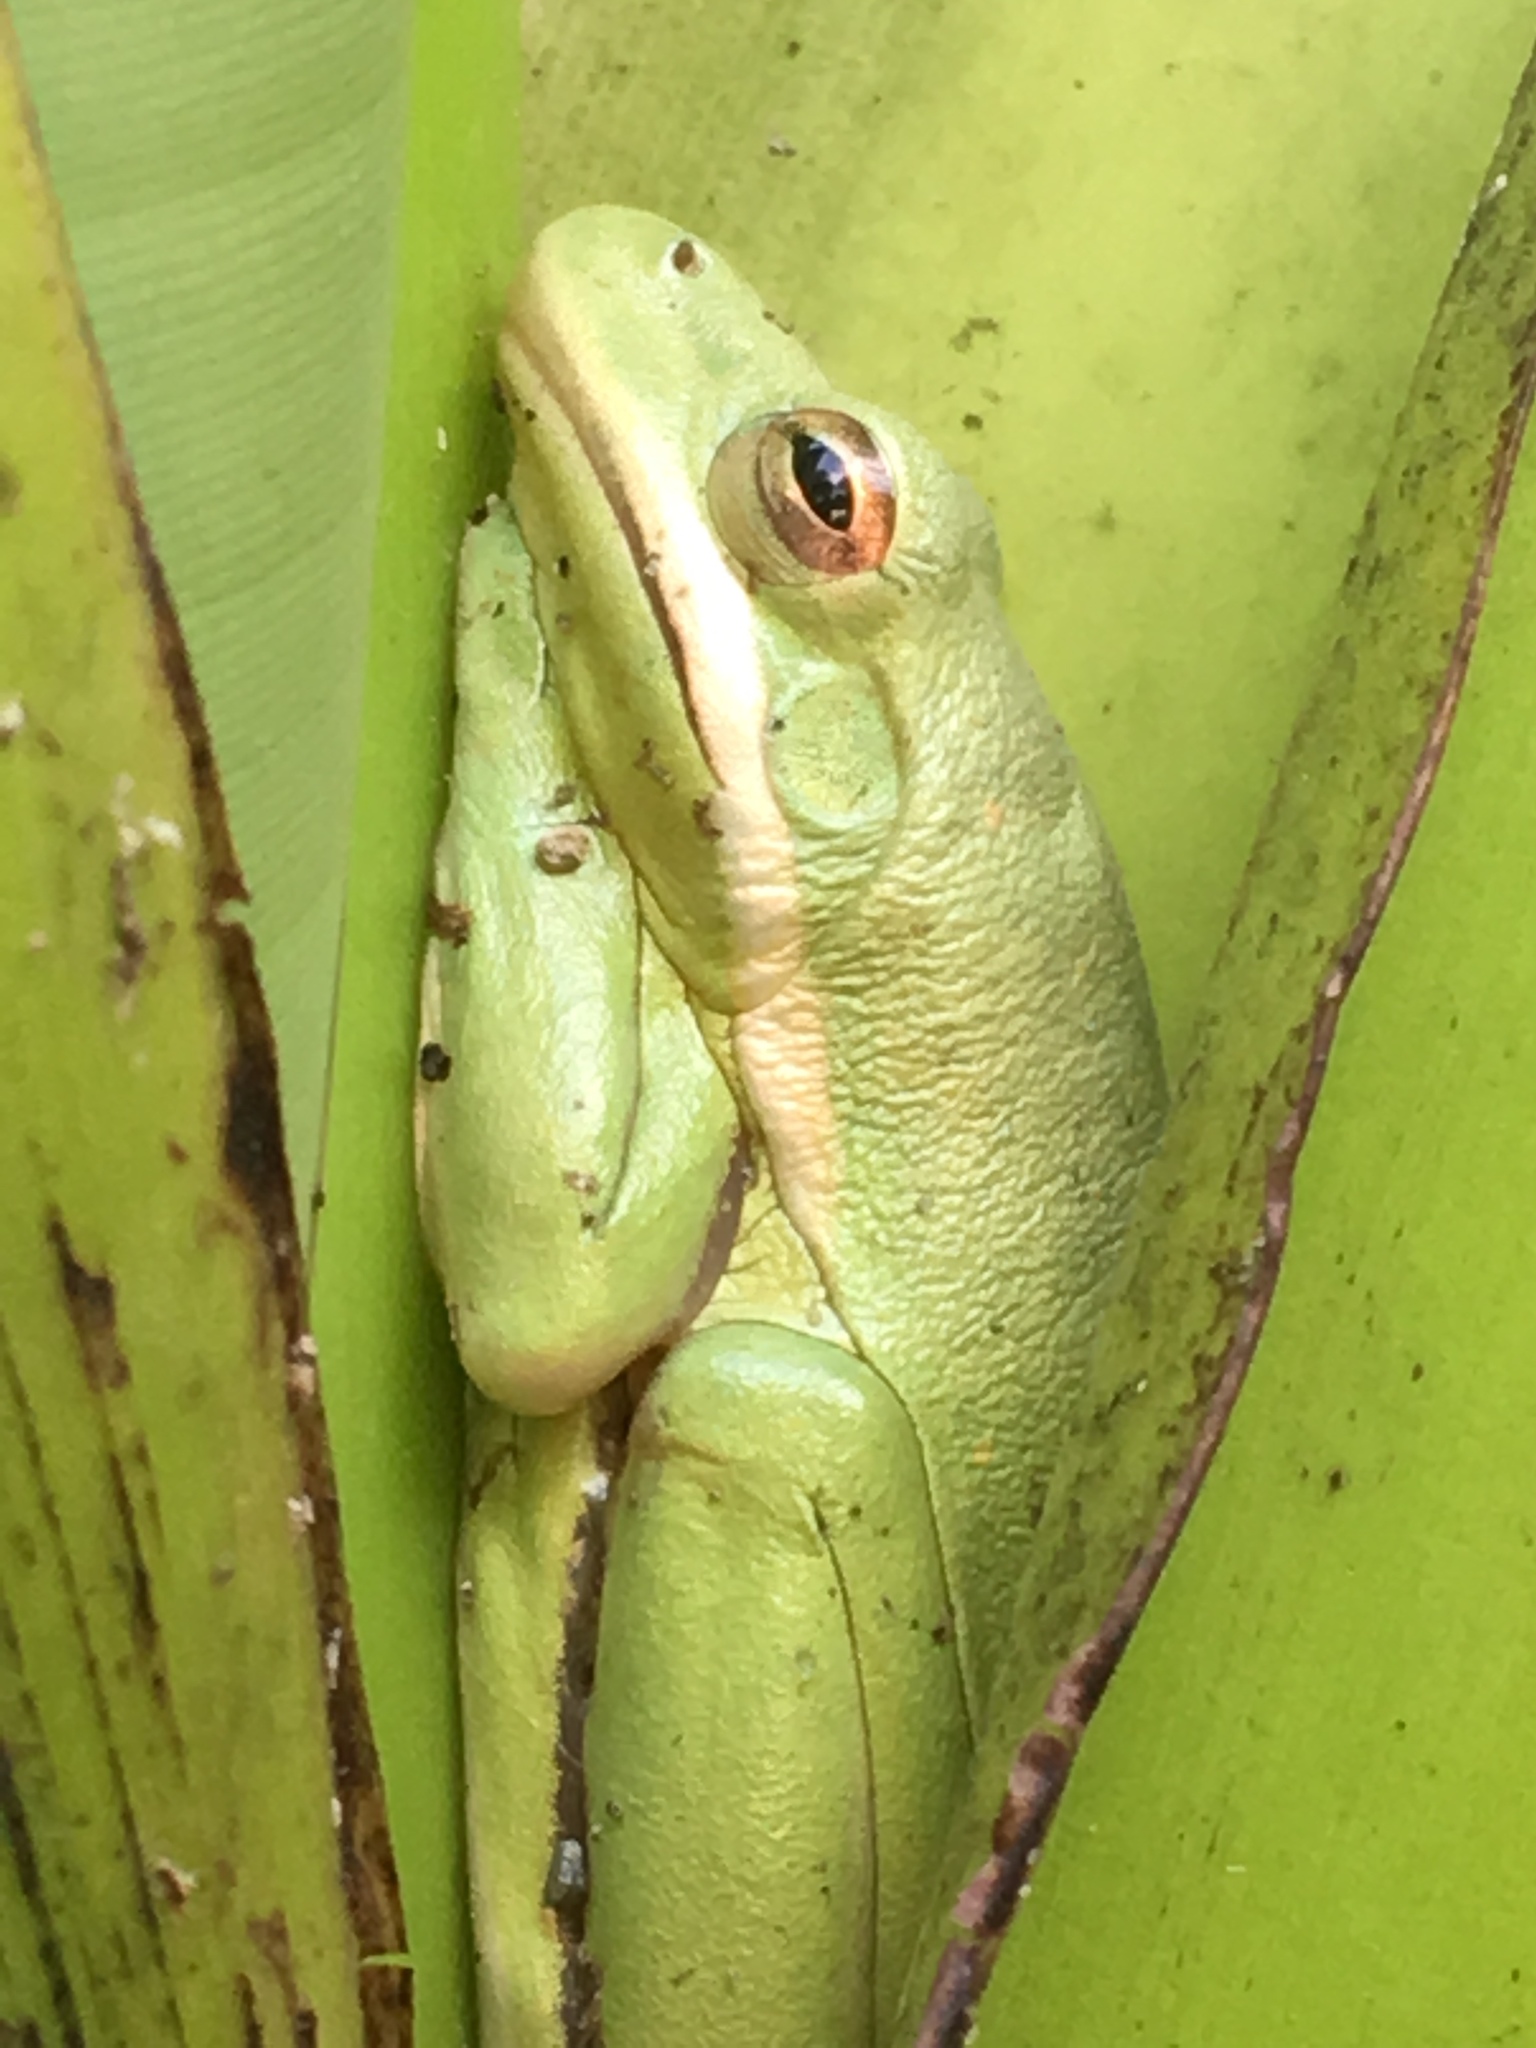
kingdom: Animalia
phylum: Chordata
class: Amphibia
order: Anura
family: Hylidae
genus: Dryophytes
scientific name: Dryophytes cinereus
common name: Green treefrog
